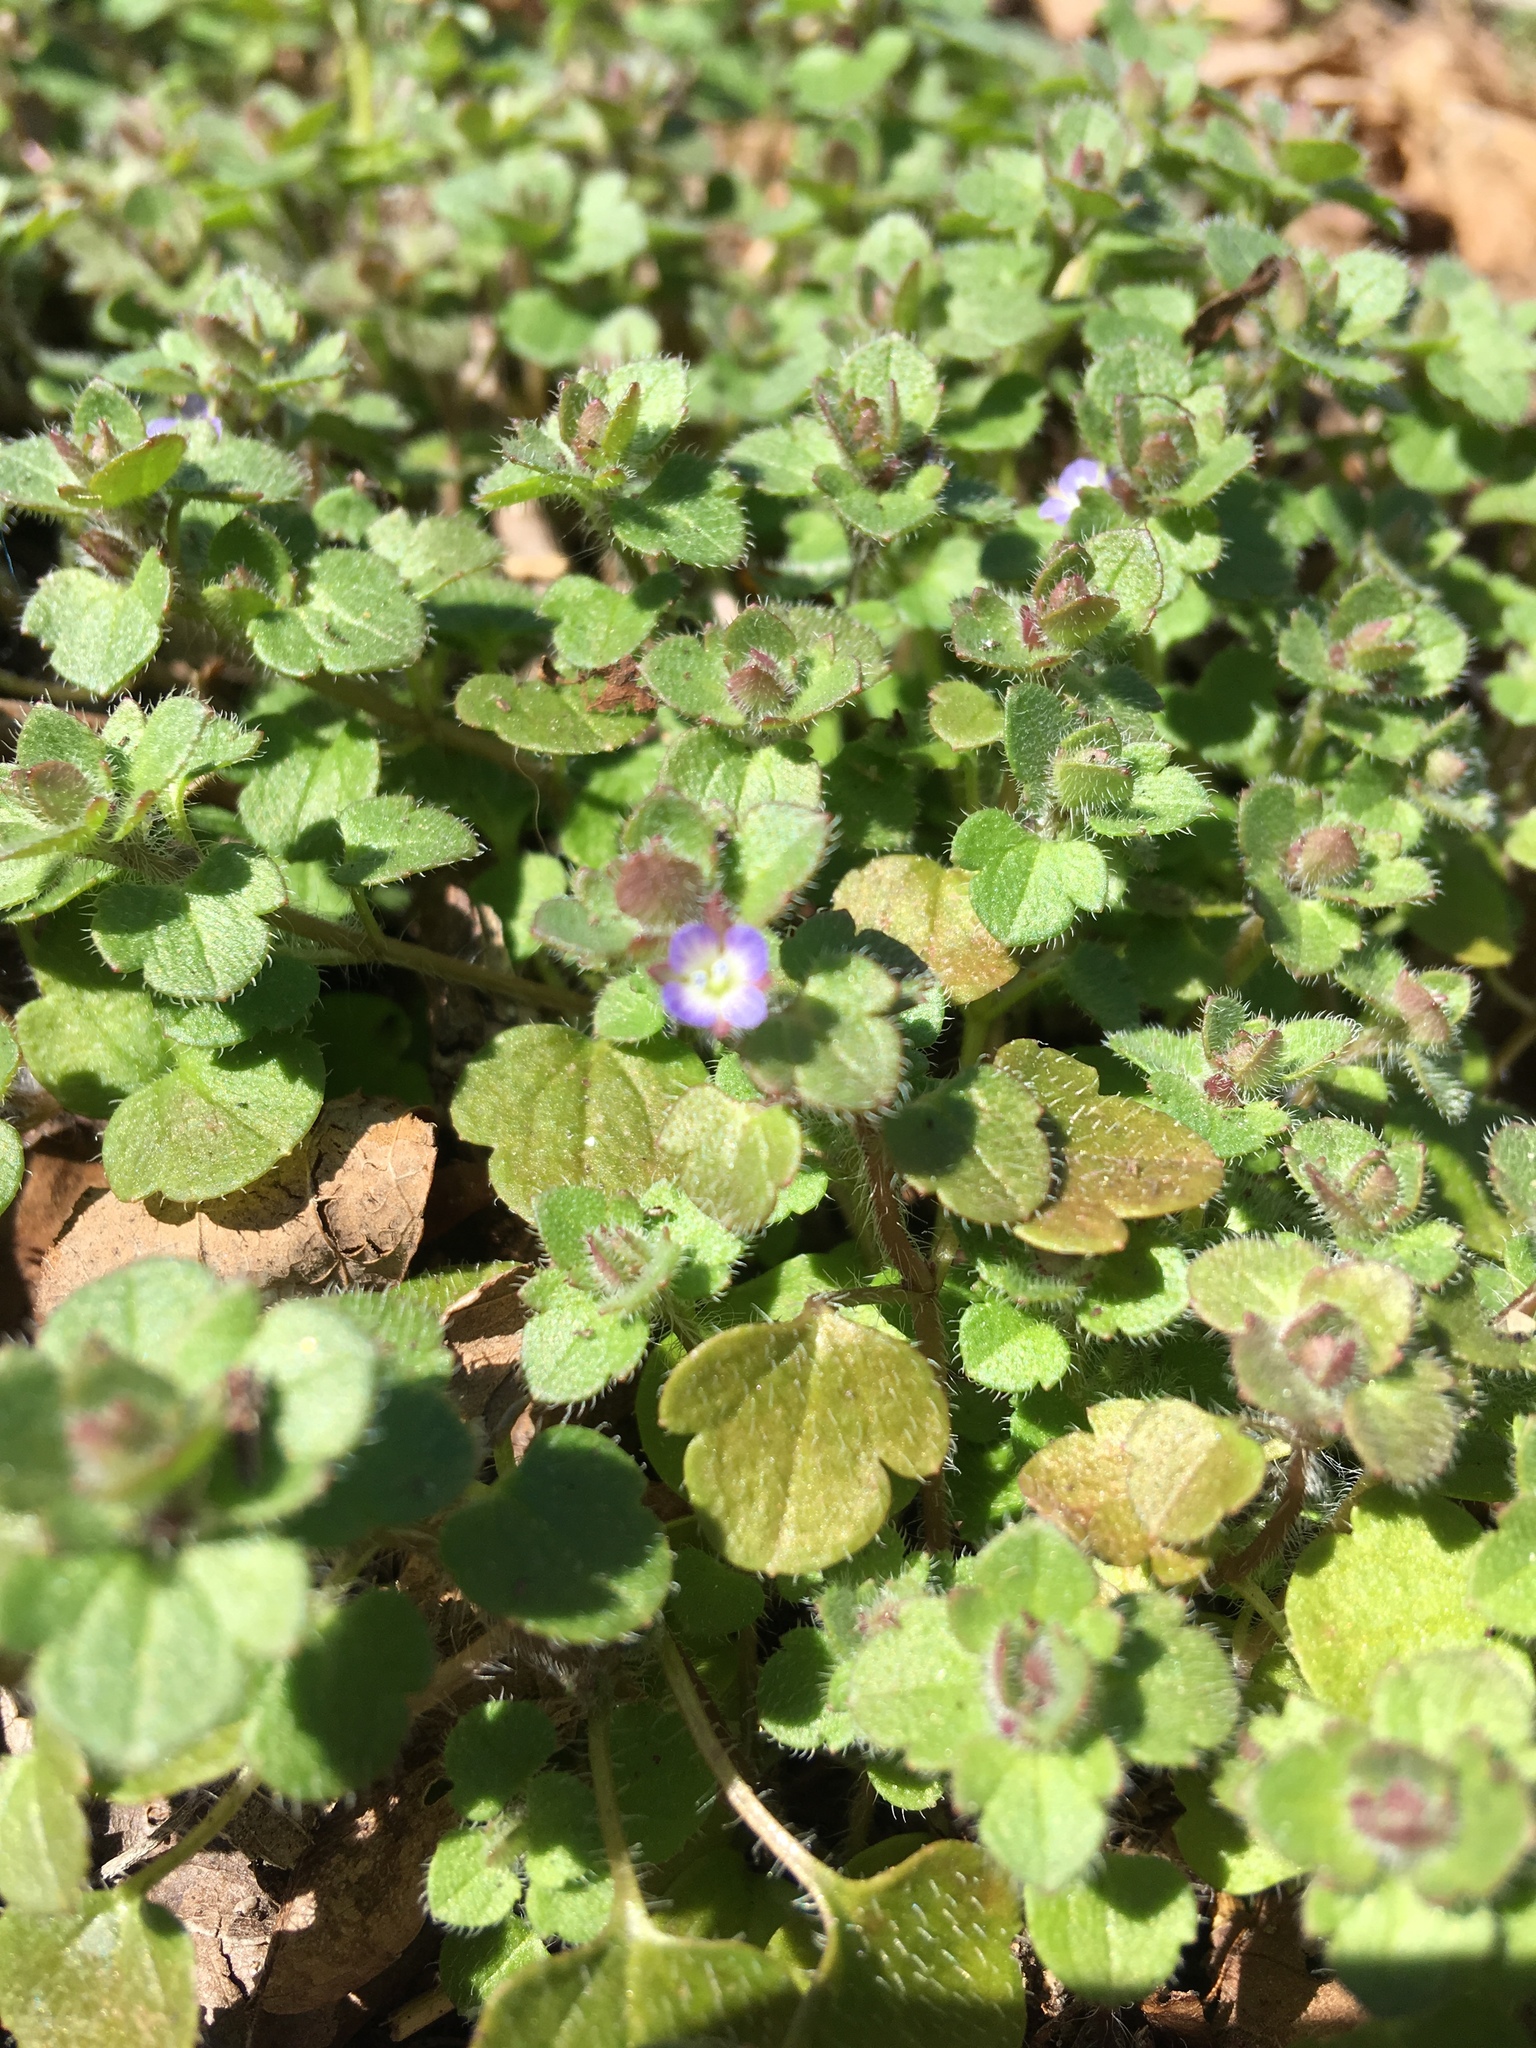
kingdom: Plantae
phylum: Tracheophyta
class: Magnoliopsida
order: Lamiales
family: Plantaginaceae
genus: Veronica
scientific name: Veronica hederifolia
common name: Ivy-leaved speedwell
